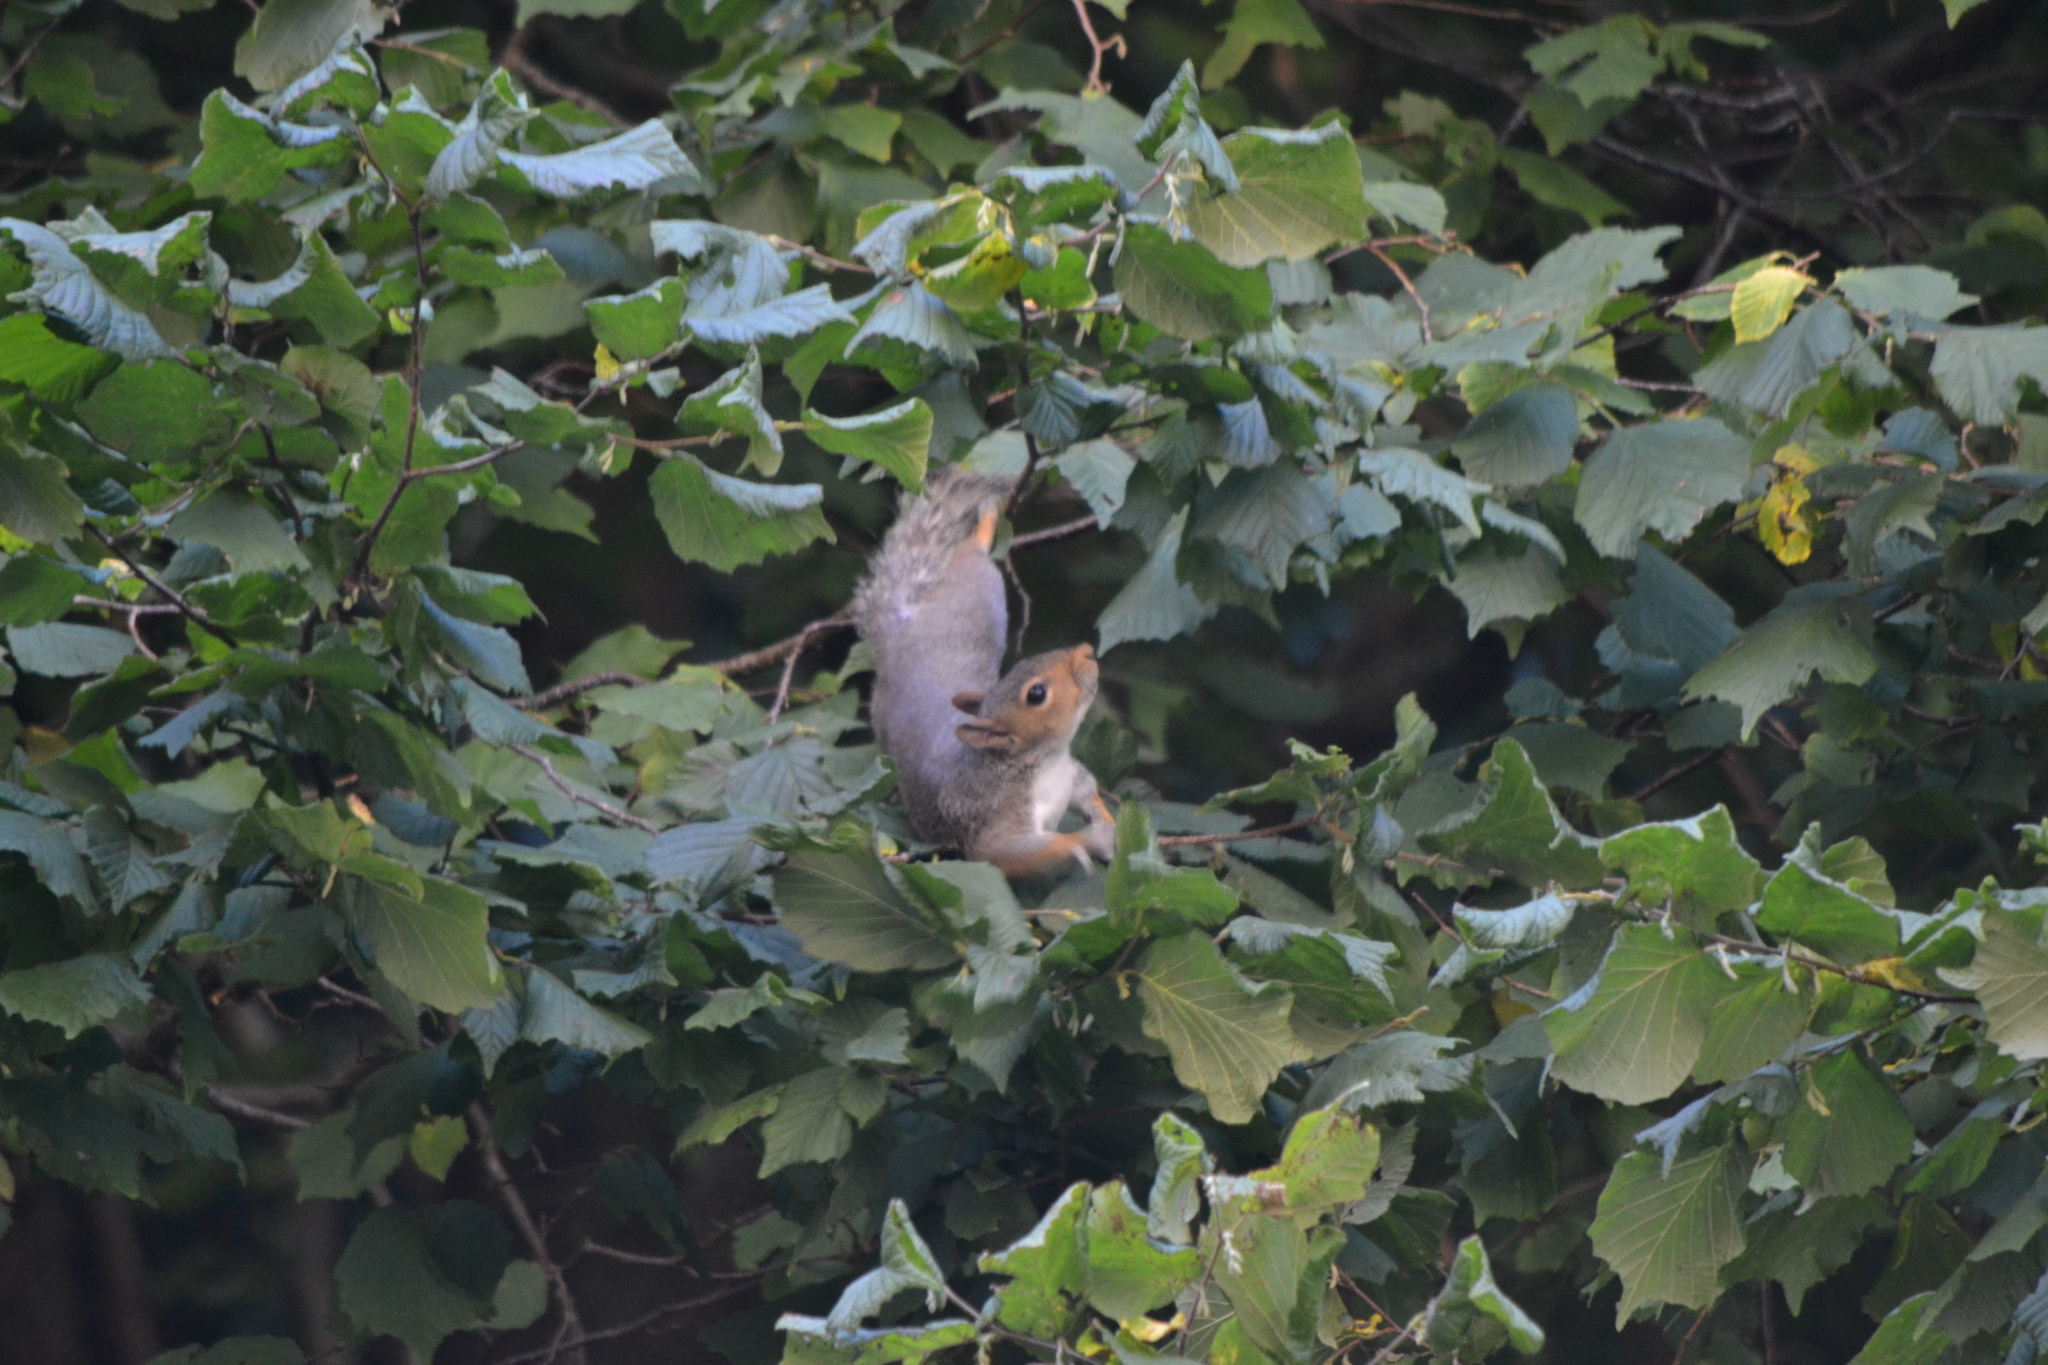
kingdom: Animalia
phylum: Chordata
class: Mammalia
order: Rodentia
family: Sciuridae
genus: Sciurus
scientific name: Sciurus carolinensis
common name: Eastern gray squirrel
